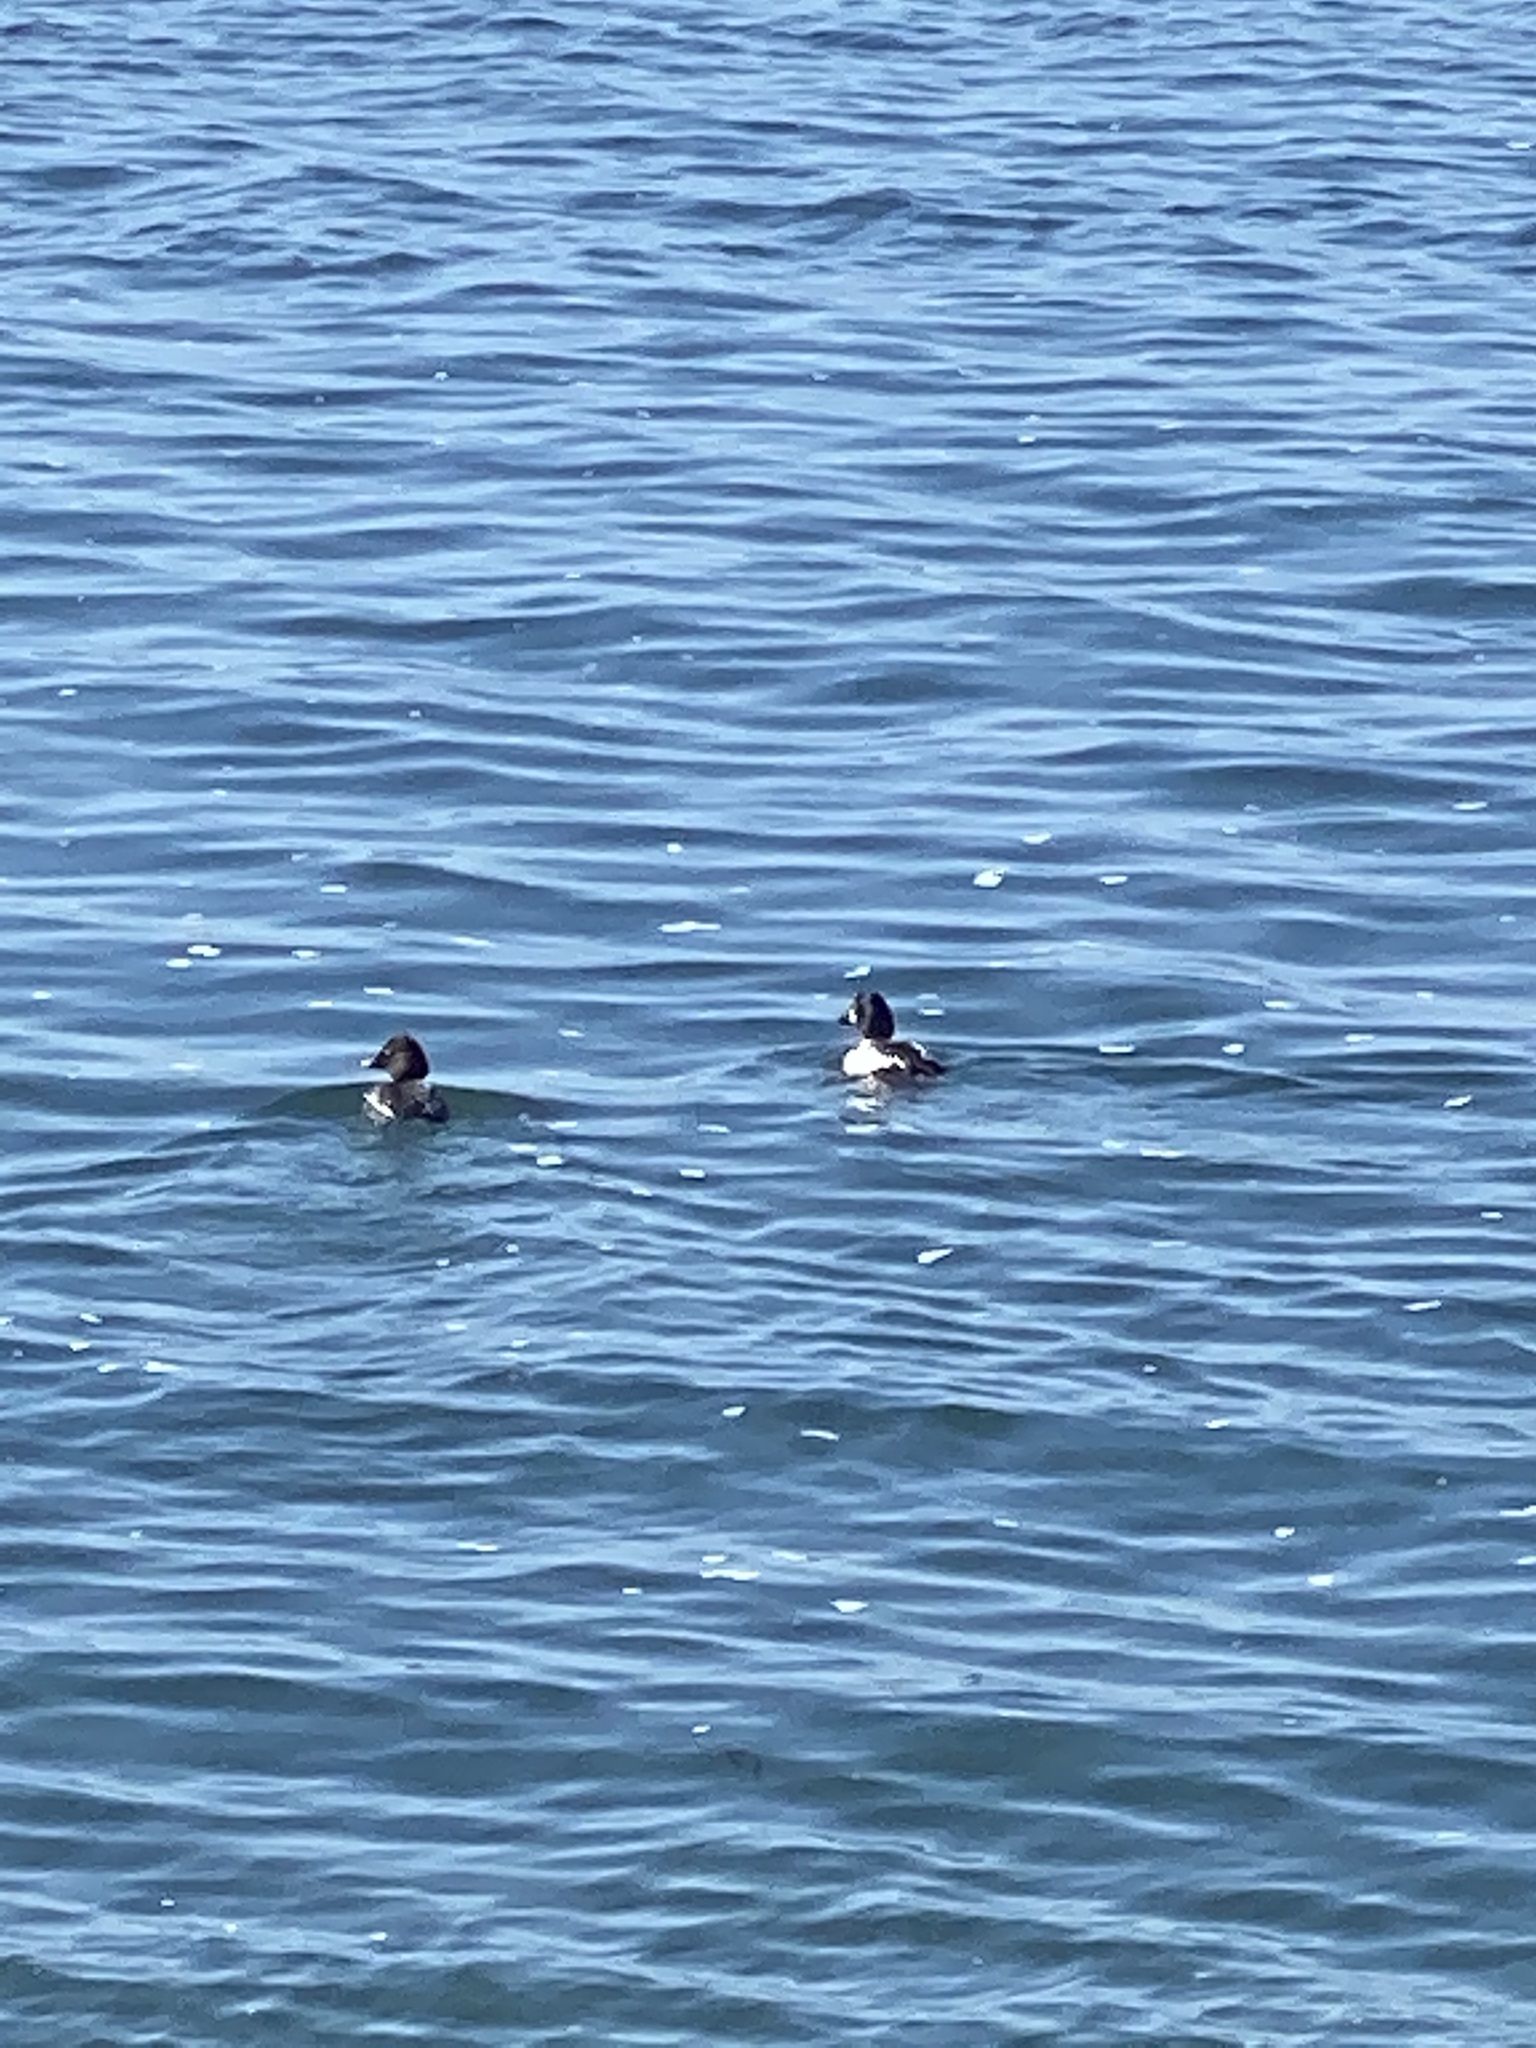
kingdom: Animalia
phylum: Chordata
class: Aves
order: Anseriformes
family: Anatidae
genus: Bucephala
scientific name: Bucephala clangula
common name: Common goldeneye
